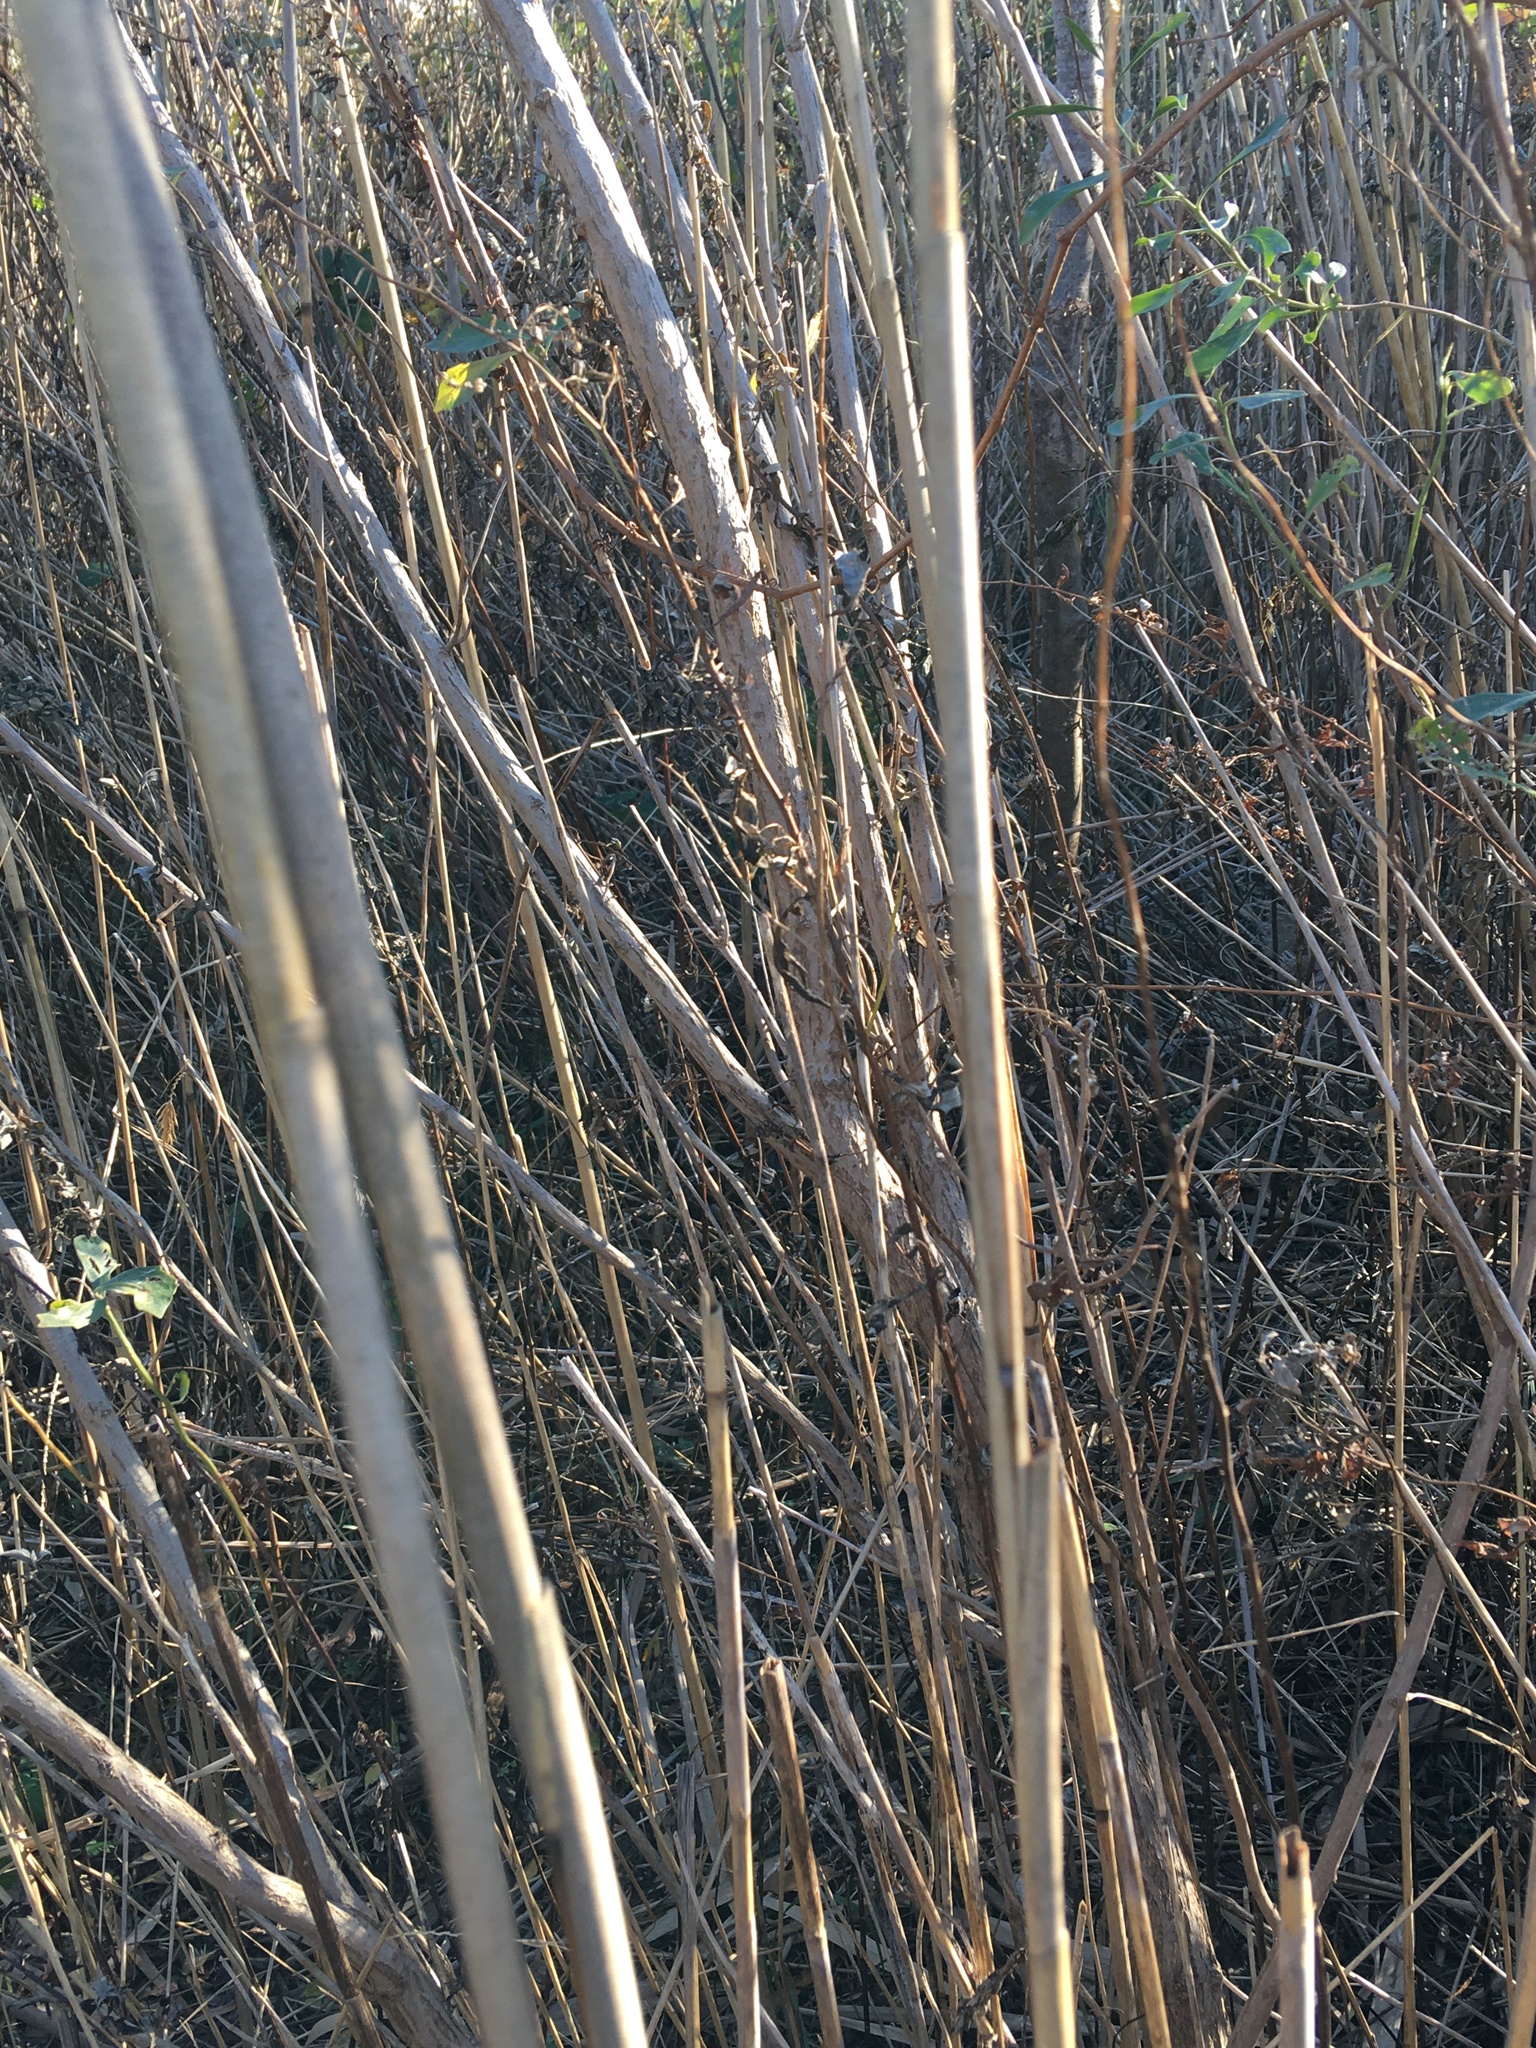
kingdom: Plantae
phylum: Tracheophyta
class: Liliopsida
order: Poales
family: Poaceae
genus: Phragmites
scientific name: Phragmites australis
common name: Common reed
